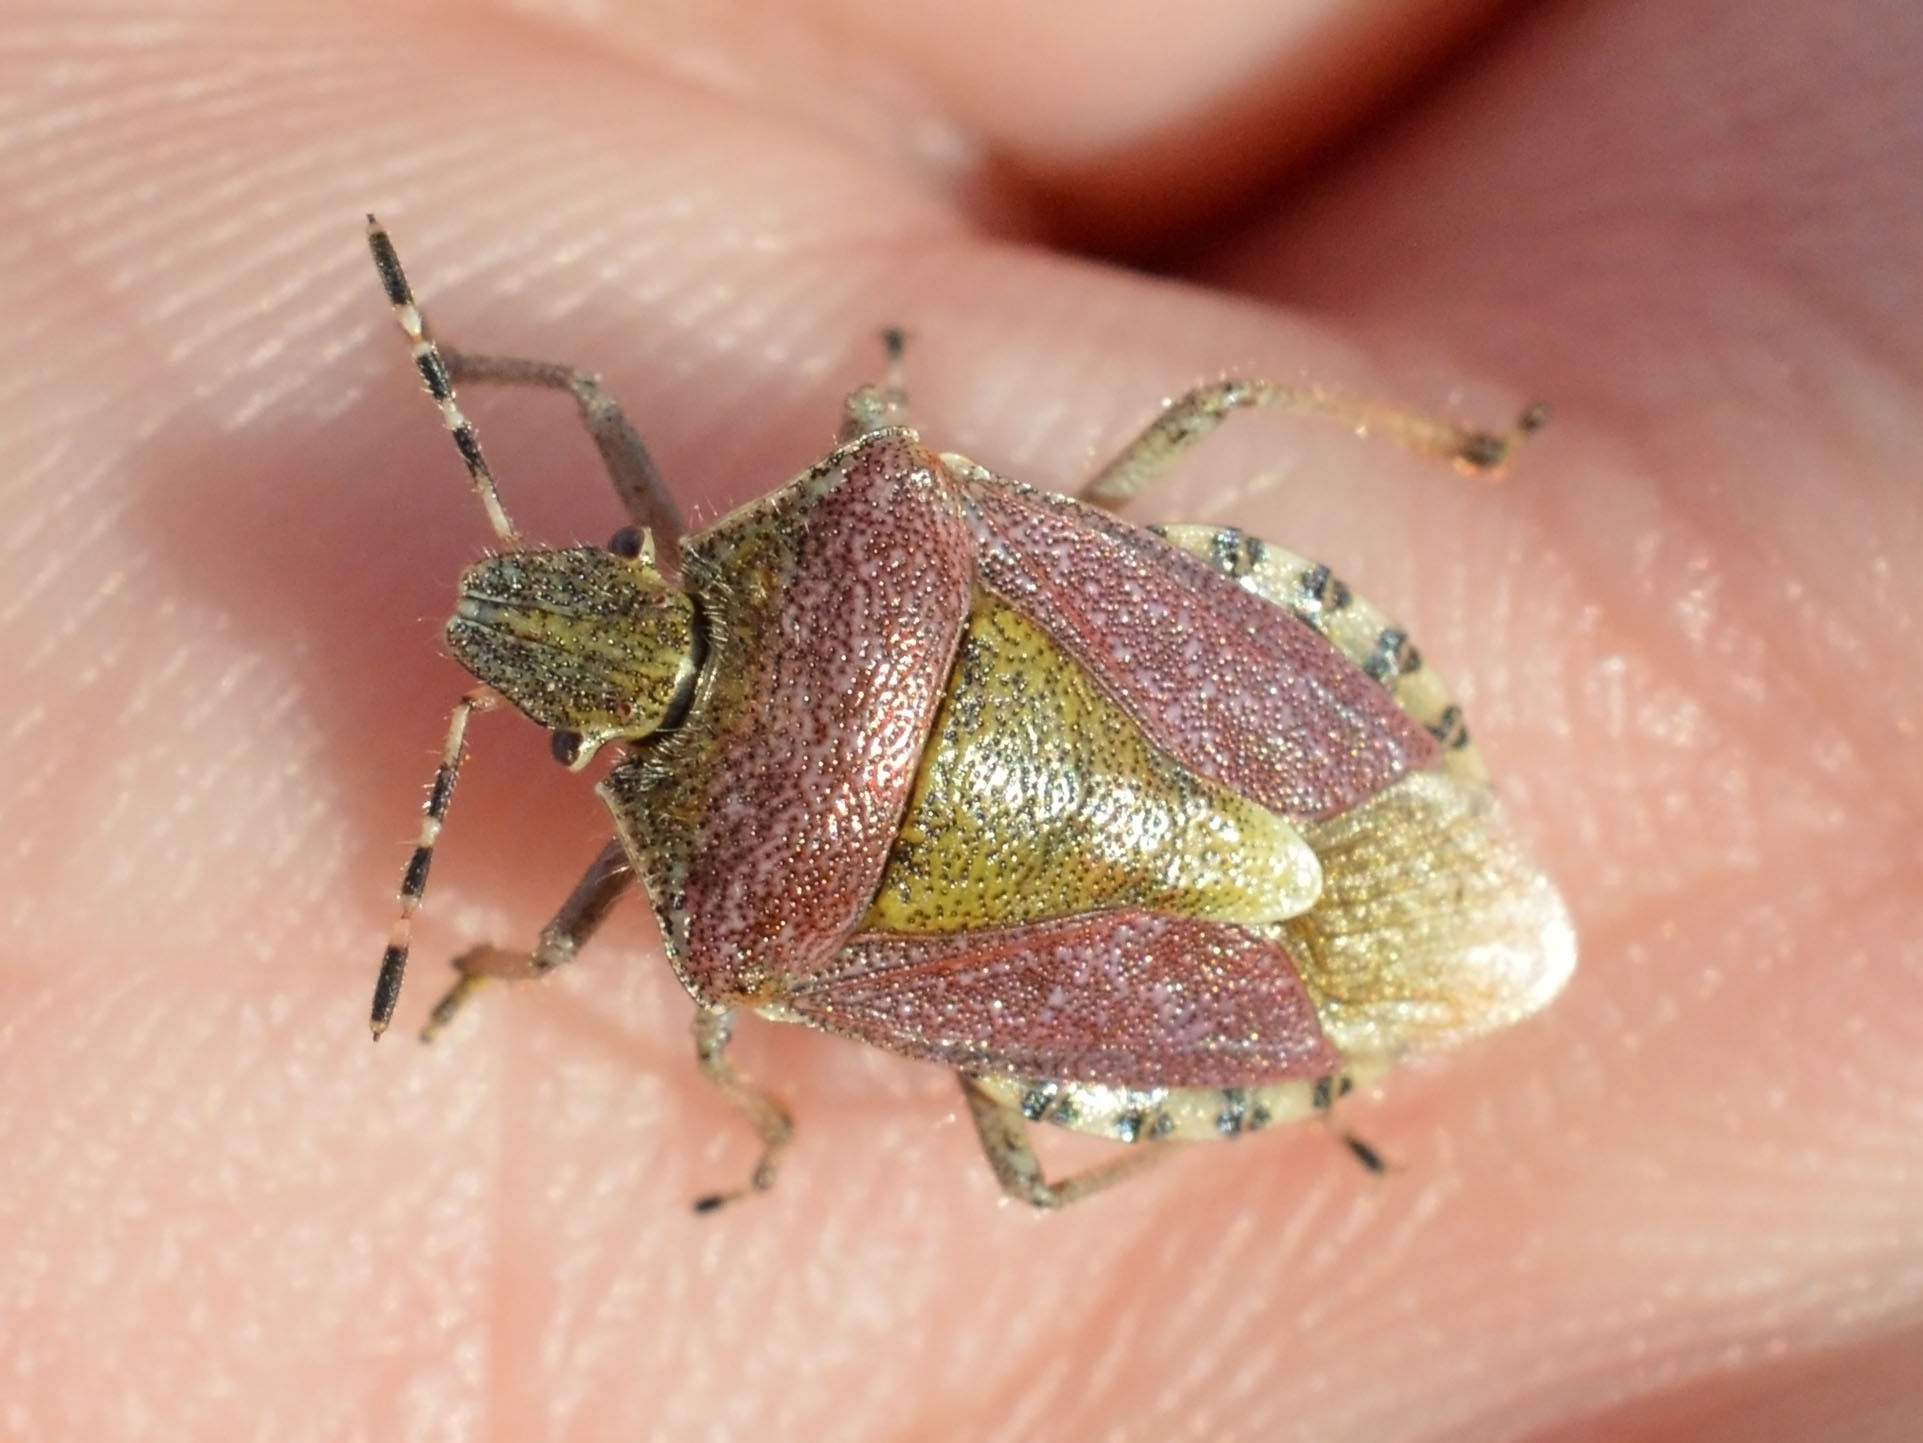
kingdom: Animalia
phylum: Arthropoda
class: Insecta
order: Hemiptera
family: Pentatomidae
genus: Dolycoris
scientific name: Dolycoris baccarum
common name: Sloe bug
